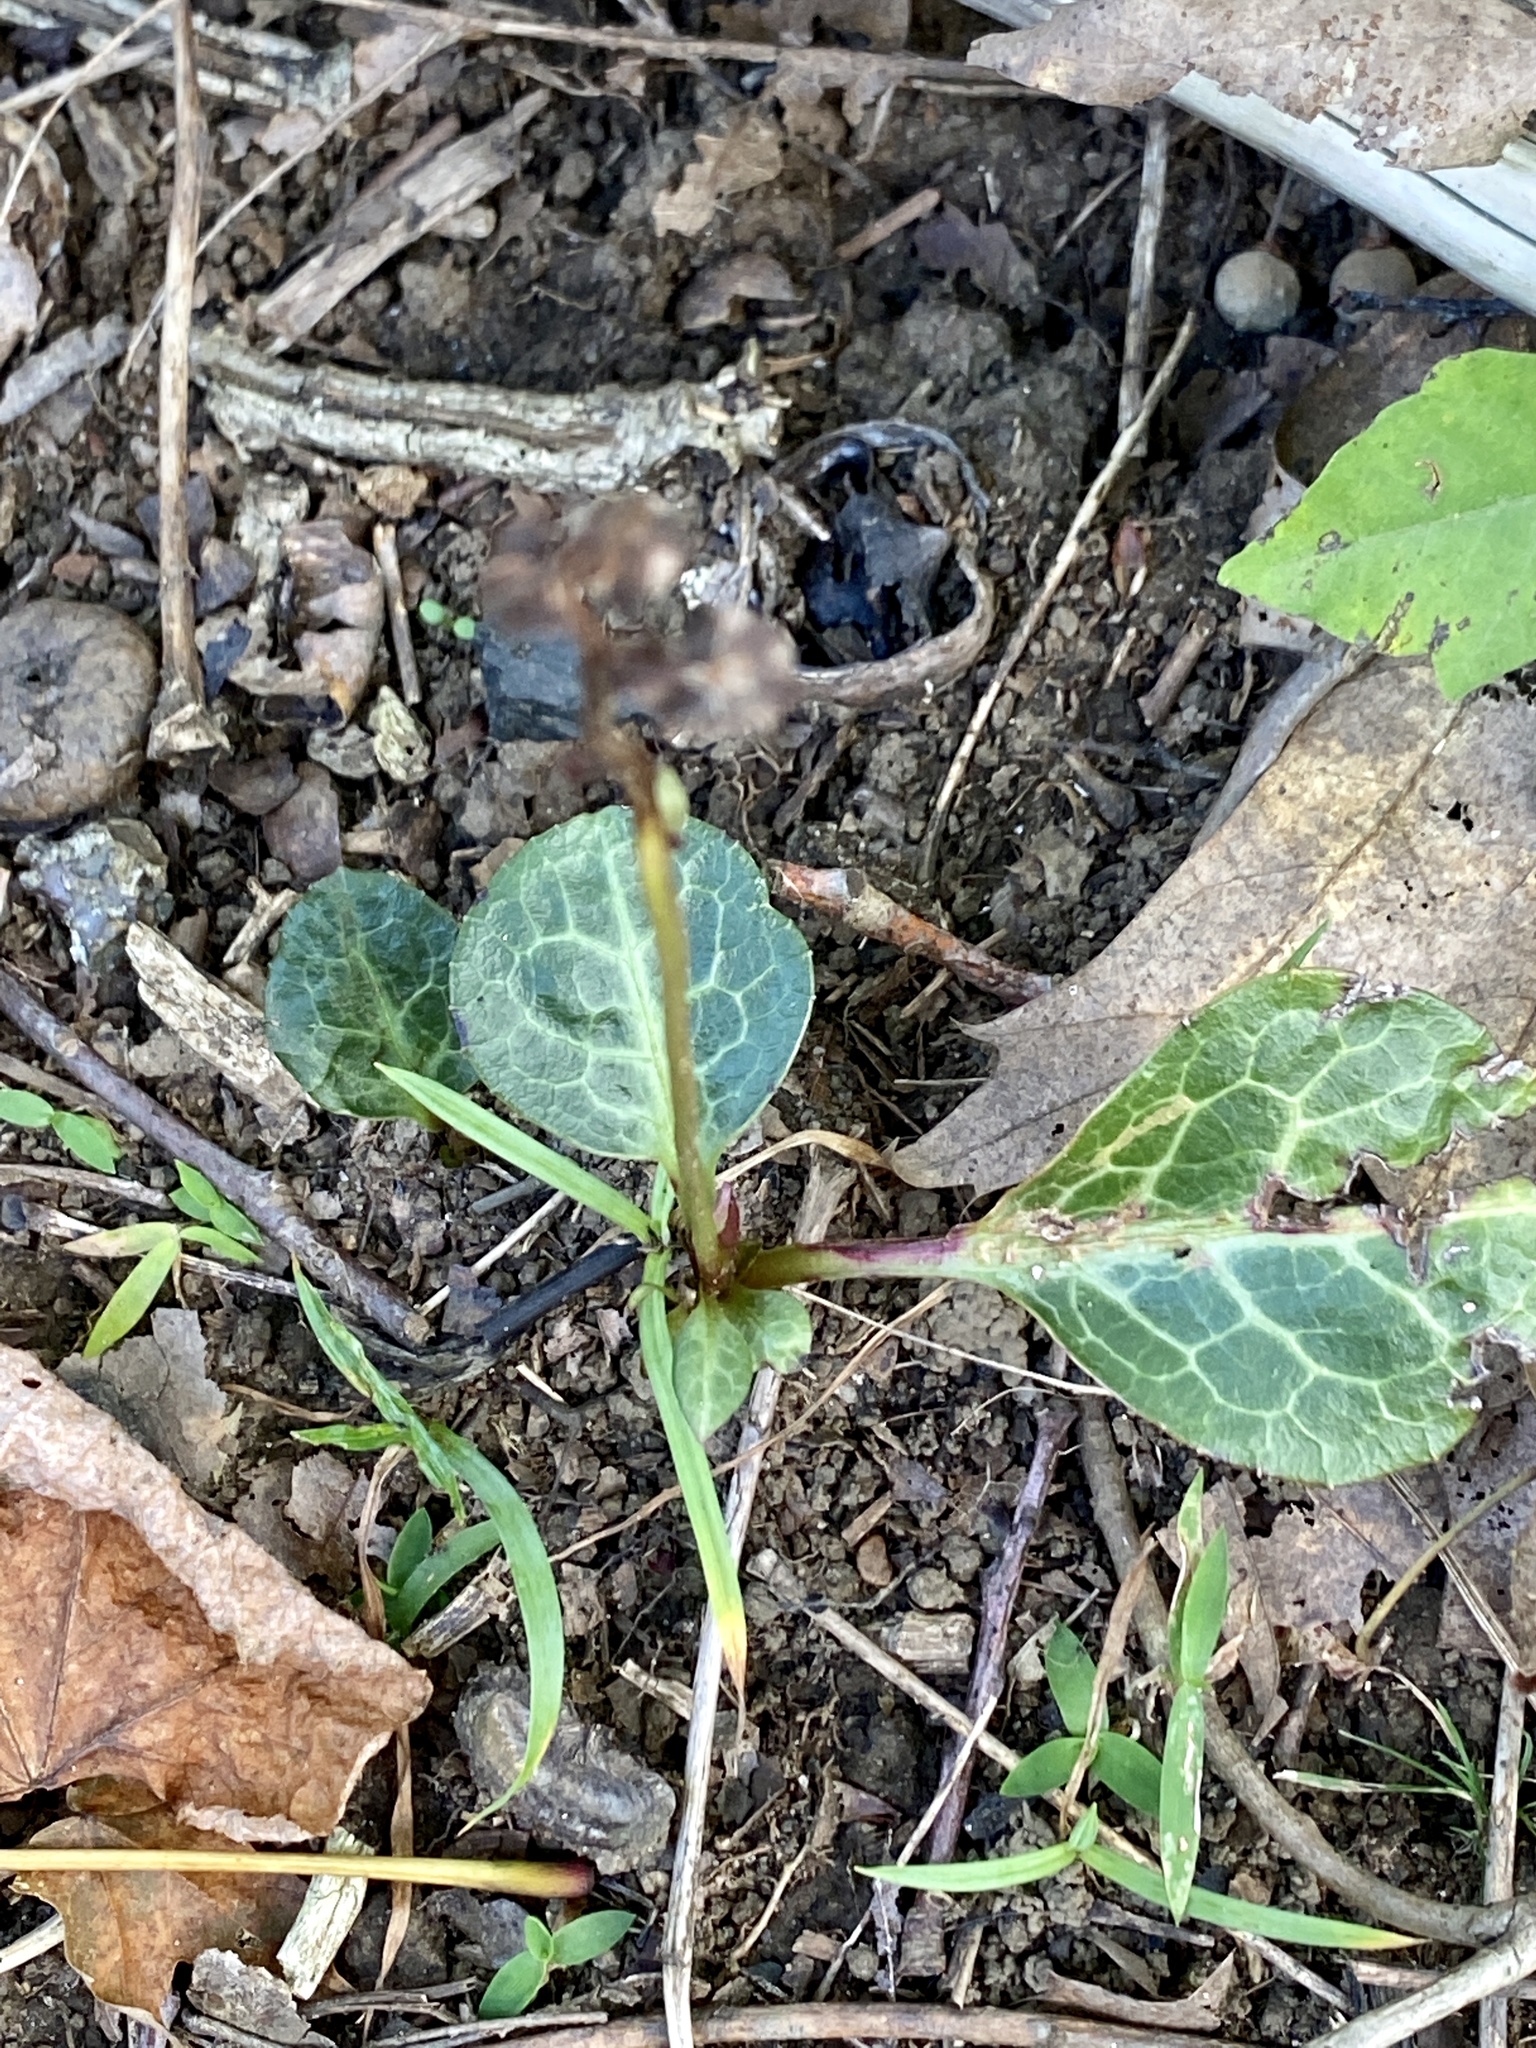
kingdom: Plantae
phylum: Tracheophyta
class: Magnoliopsida
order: Ericales
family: Ericaceae
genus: Pyrola
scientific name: Pyrola americana
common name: American wintergreen
